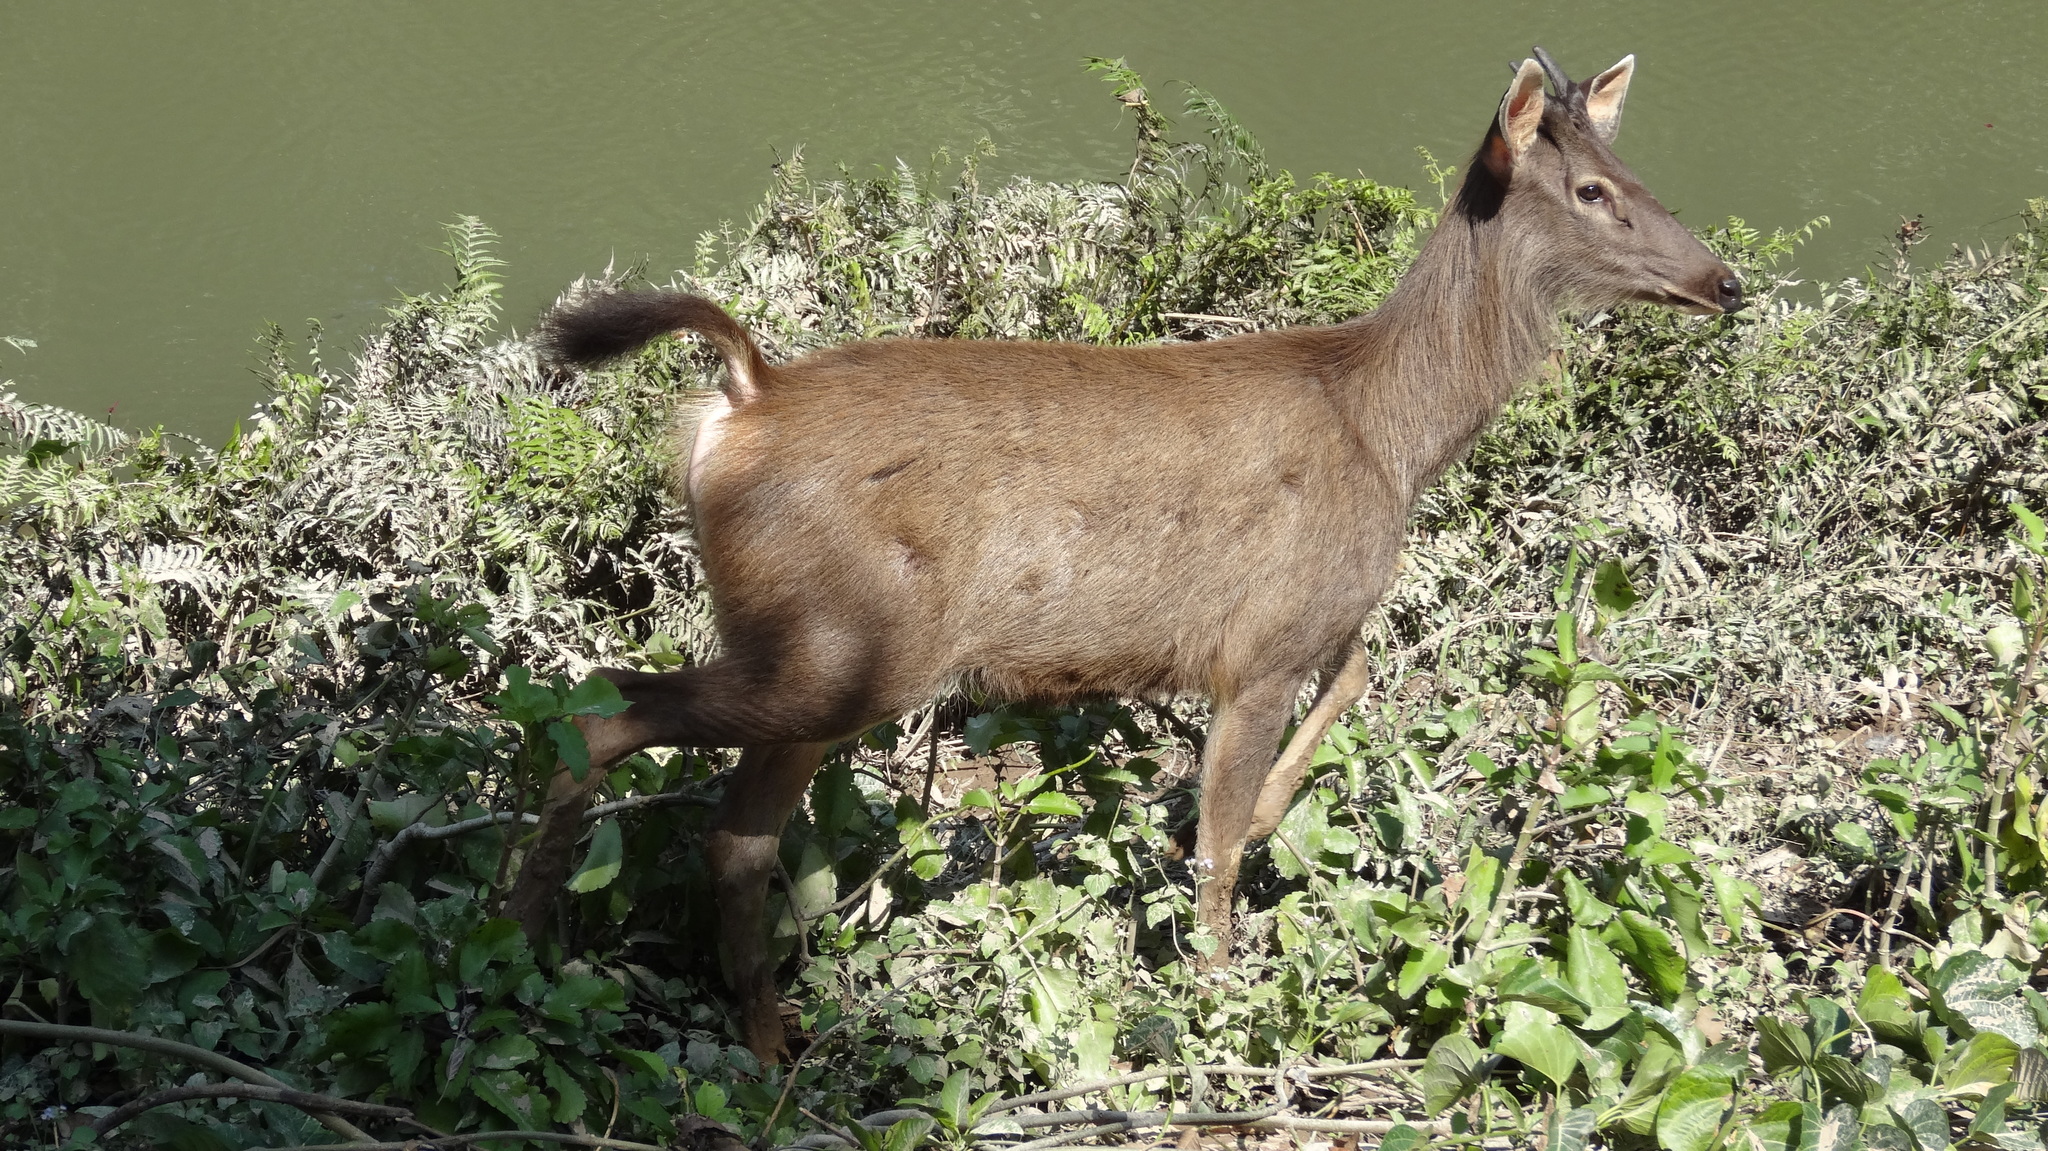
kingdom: Animalia
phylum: Chordata
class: Mammalia
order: Artiodactyla
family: Cervidae
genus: Rusa
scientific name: Rusa unicolor
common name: Sambar
